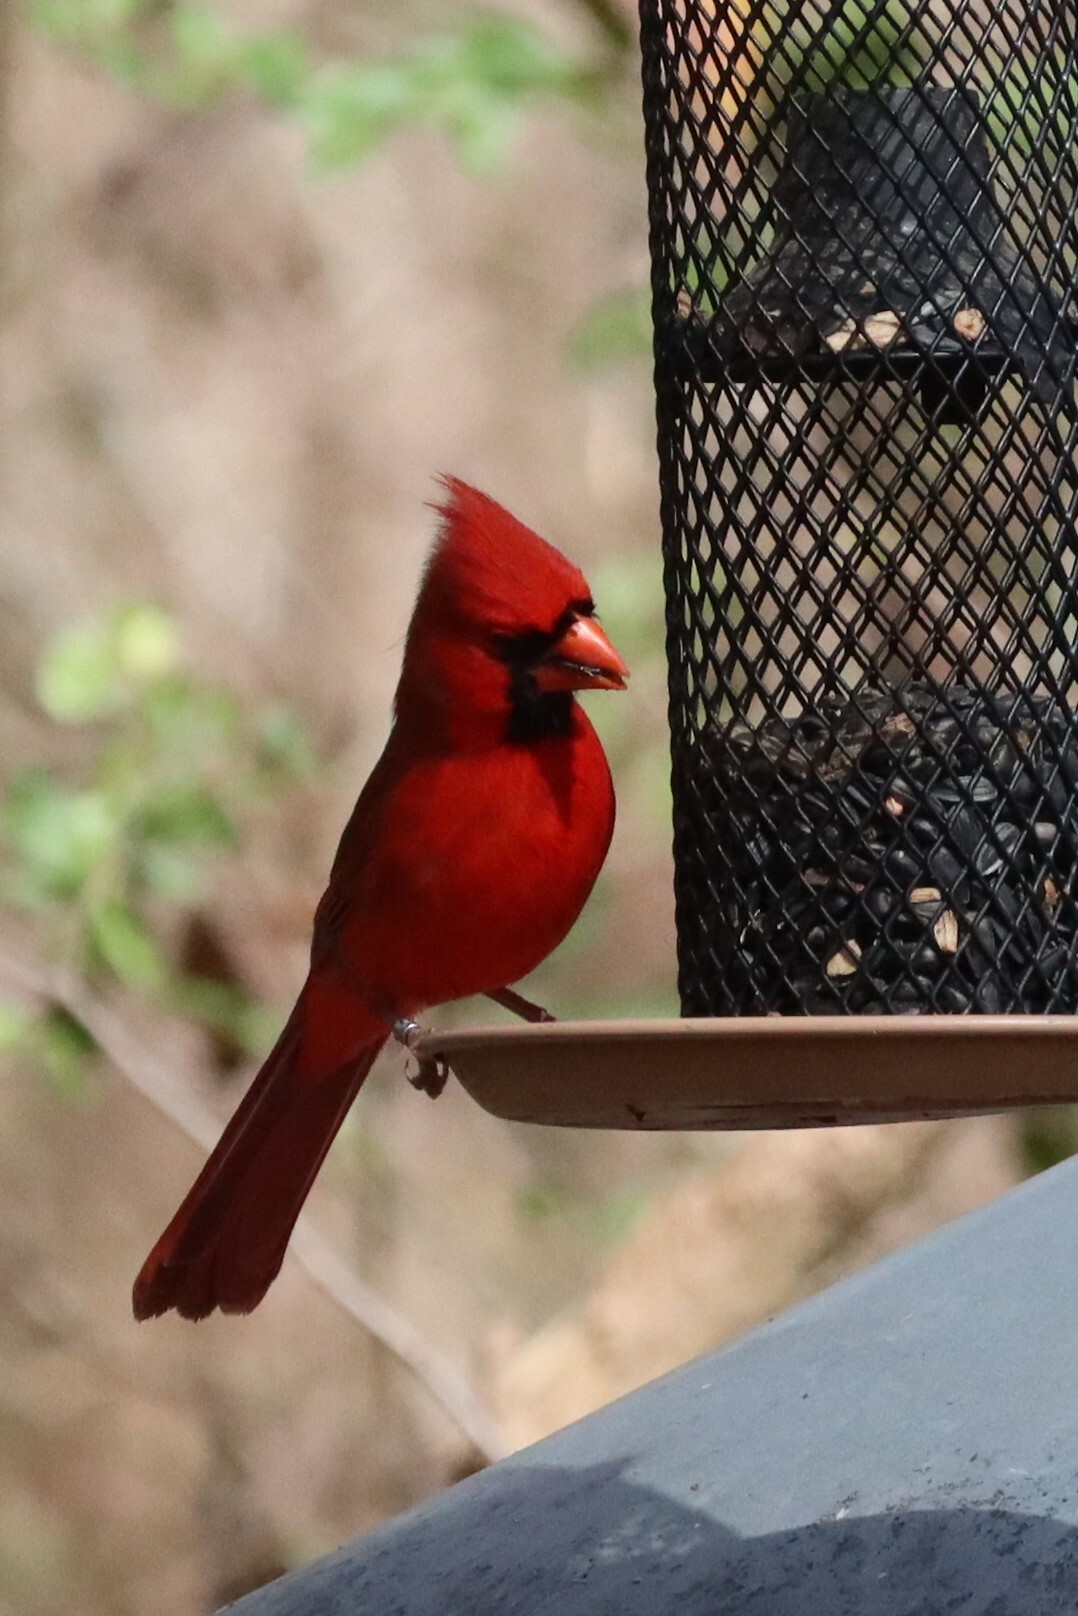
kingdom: Animalia
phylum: Chordata
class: Aves
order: Passeriformes
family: Cardinalidae
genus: Cardinalis
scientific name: Cardinalis cardinalis
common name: Northern cardinal
